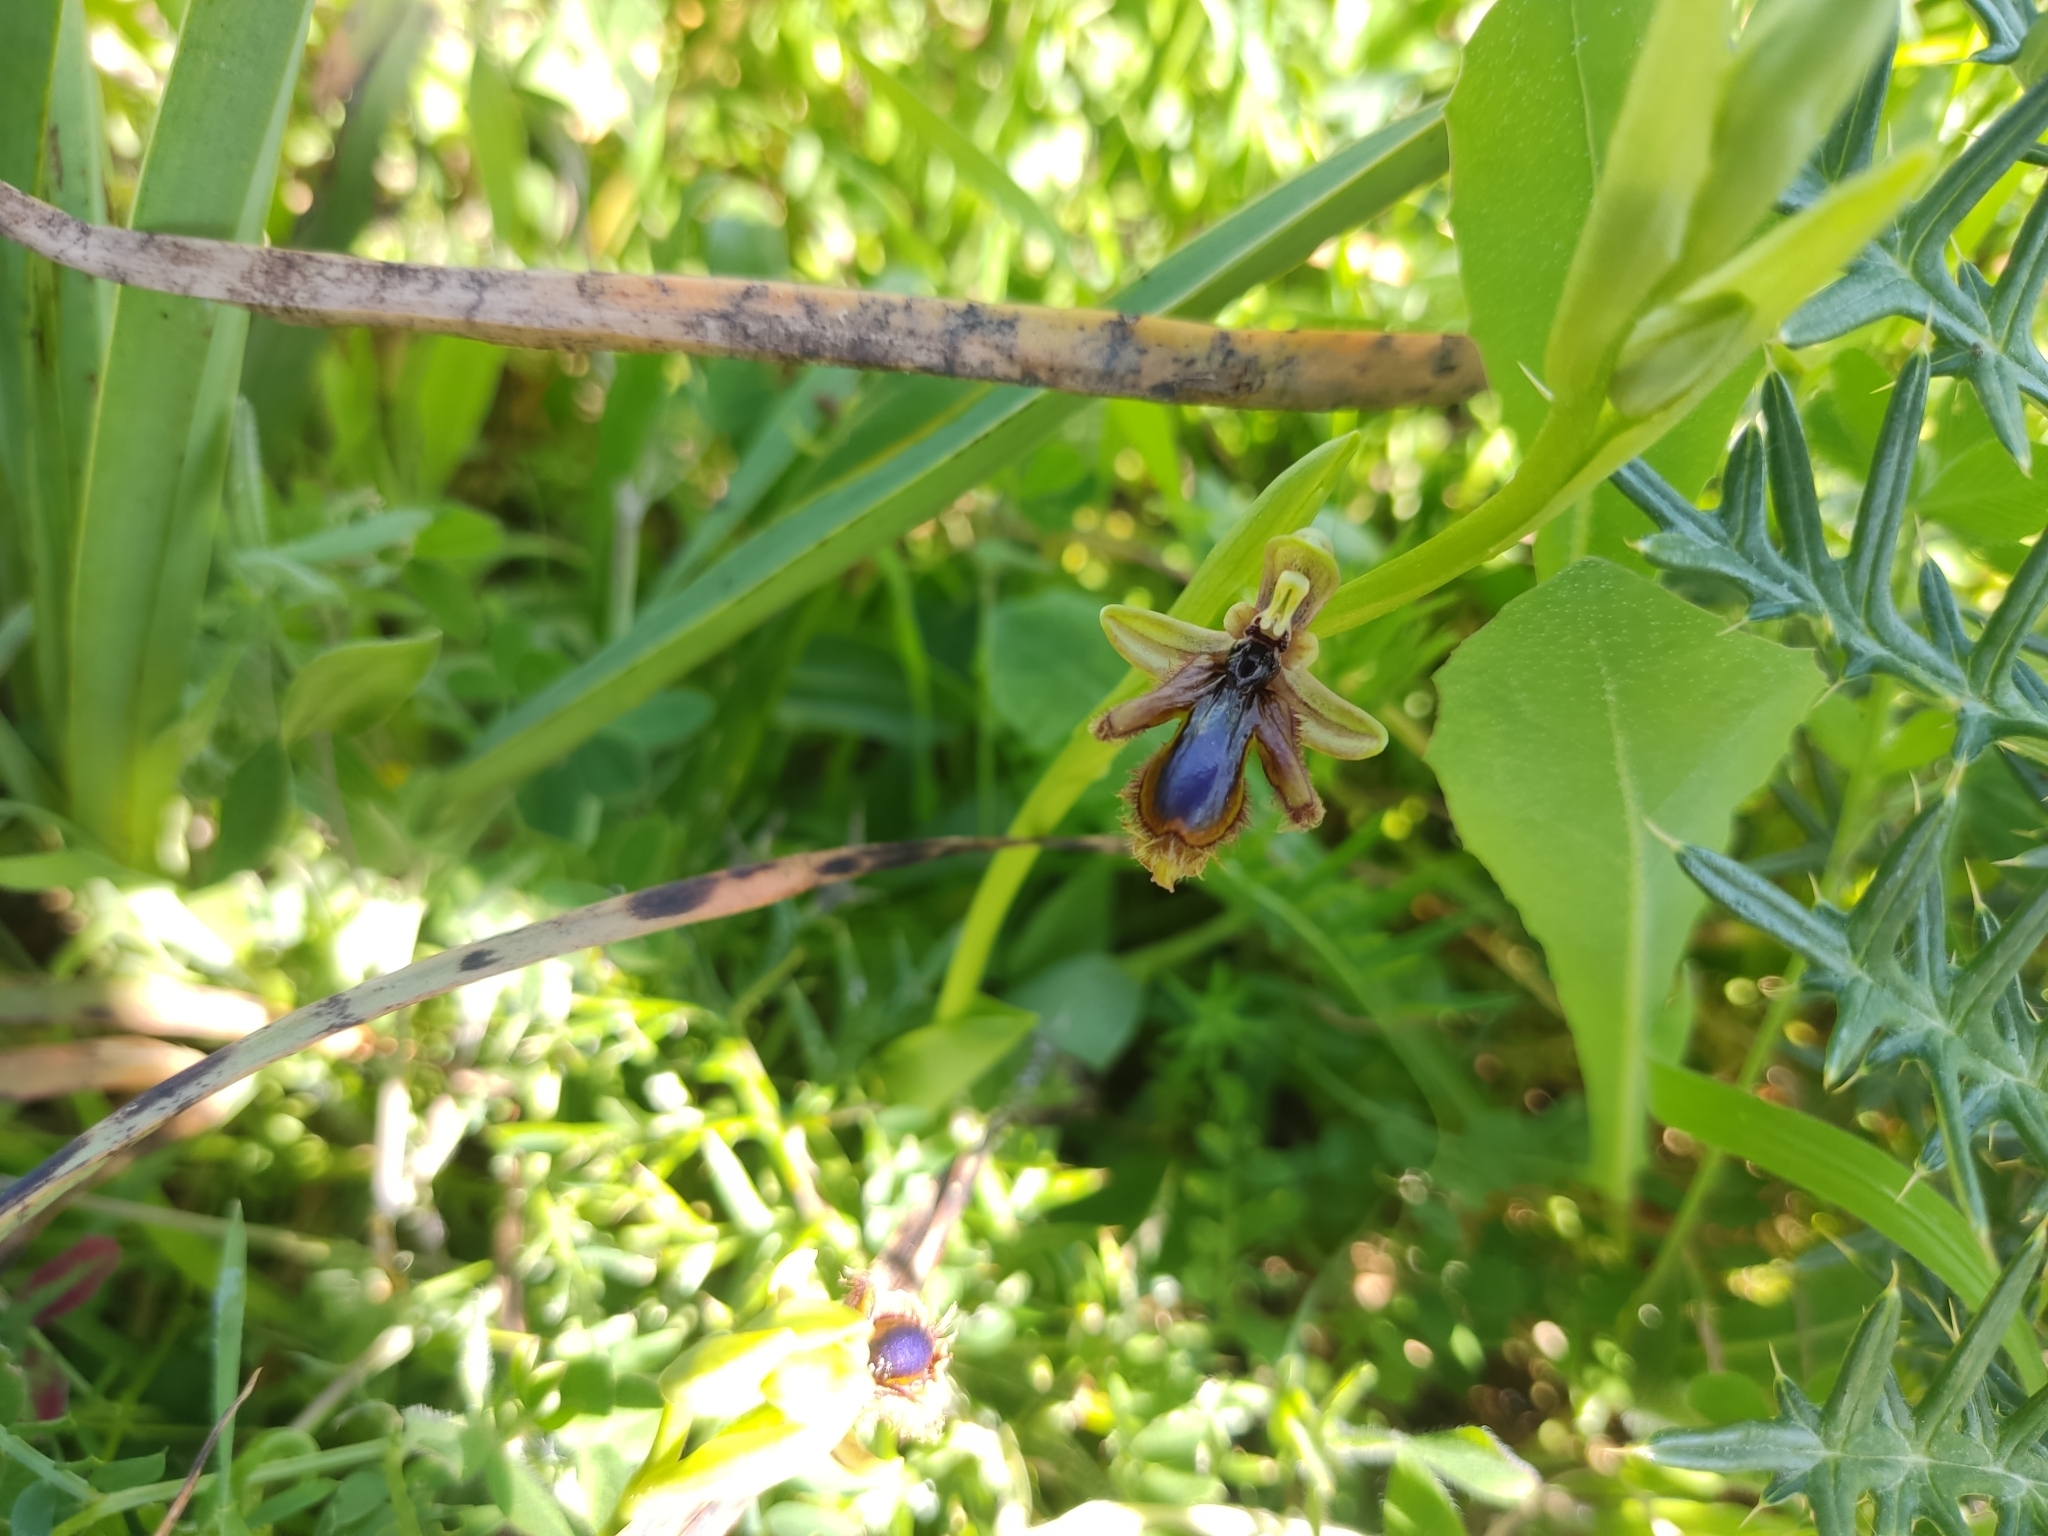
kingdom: Plantae
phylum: Tracheophyta
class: Liliopsida
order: Asparagales
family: Orchidaceae
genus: Ophrys
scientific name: Ophrys speculum
